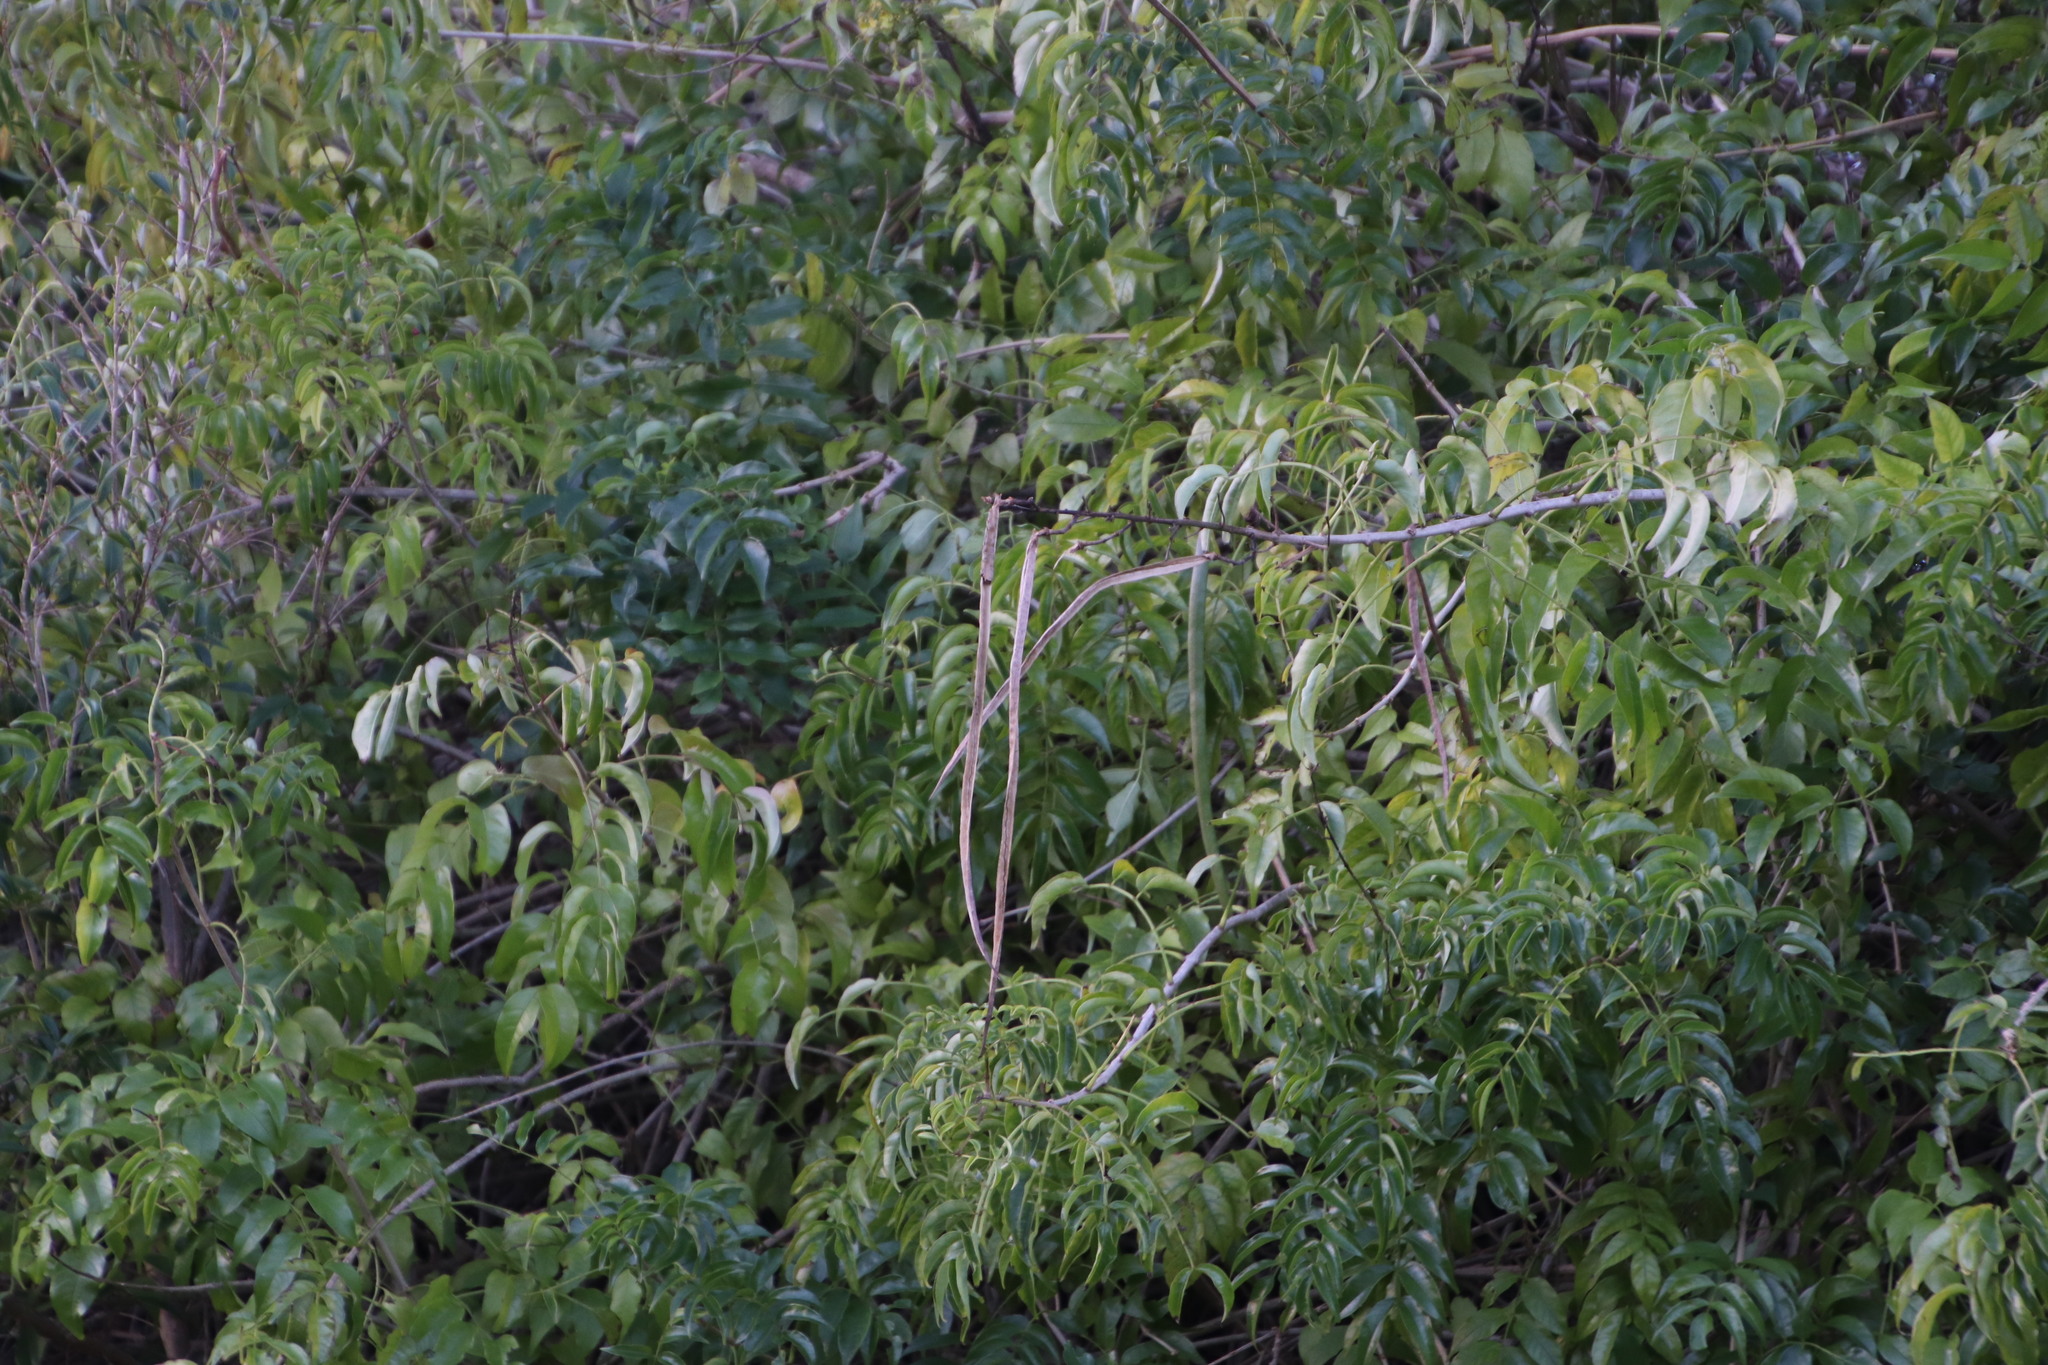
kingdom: Plantae
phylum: Tracheophyta
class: Magnoliopsida
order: Lamiales
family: Bignoniaceae
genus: Podranea
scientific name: Podranea ricasoliana
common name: Zimbabwe creeper
